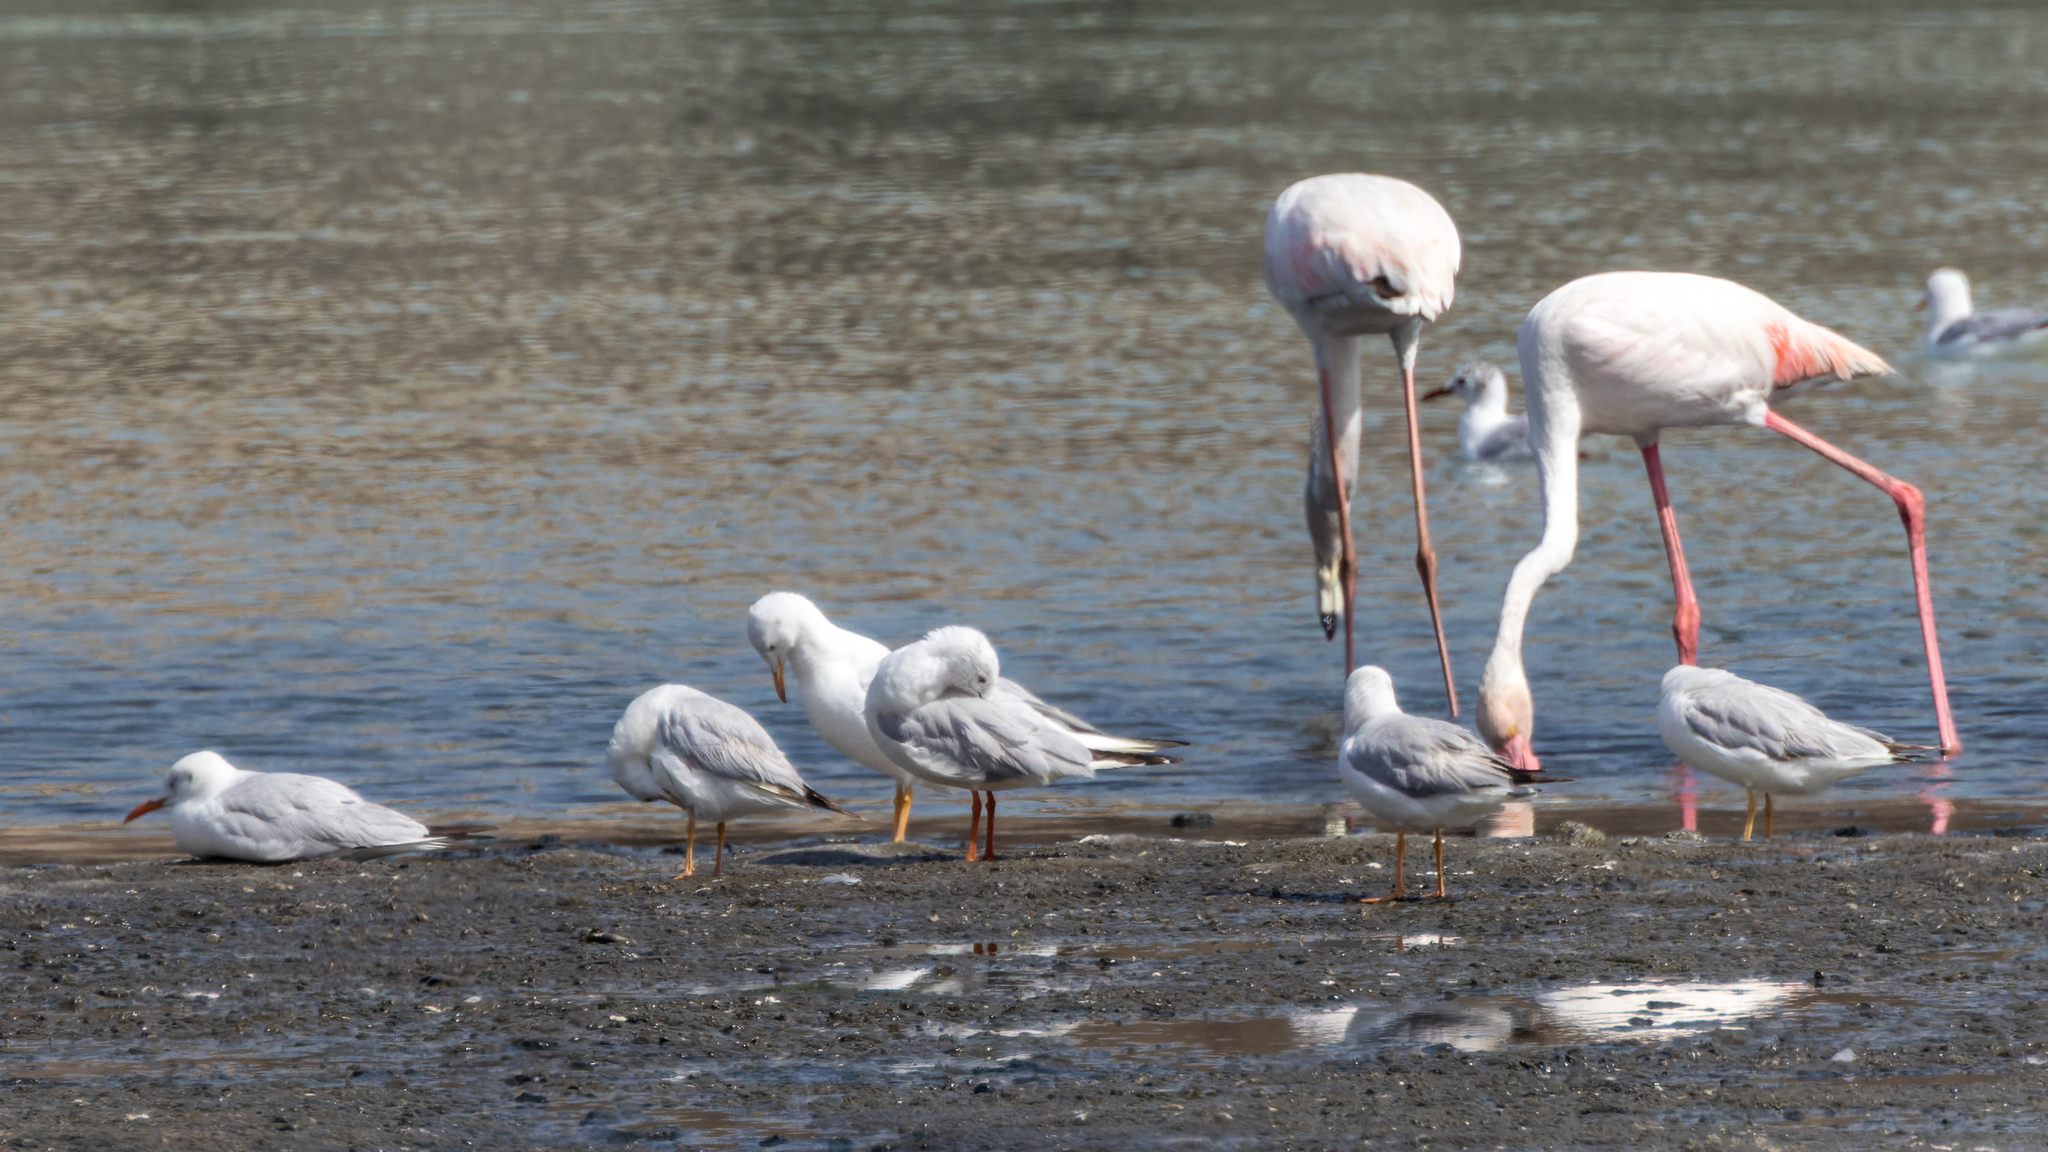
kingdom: Animalia
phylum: Chordata
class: Aves
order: Charadriiformes
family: Laridae
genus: Chroicocephalus
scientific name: Chroicocephalus genei
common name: Slender-billed gull
